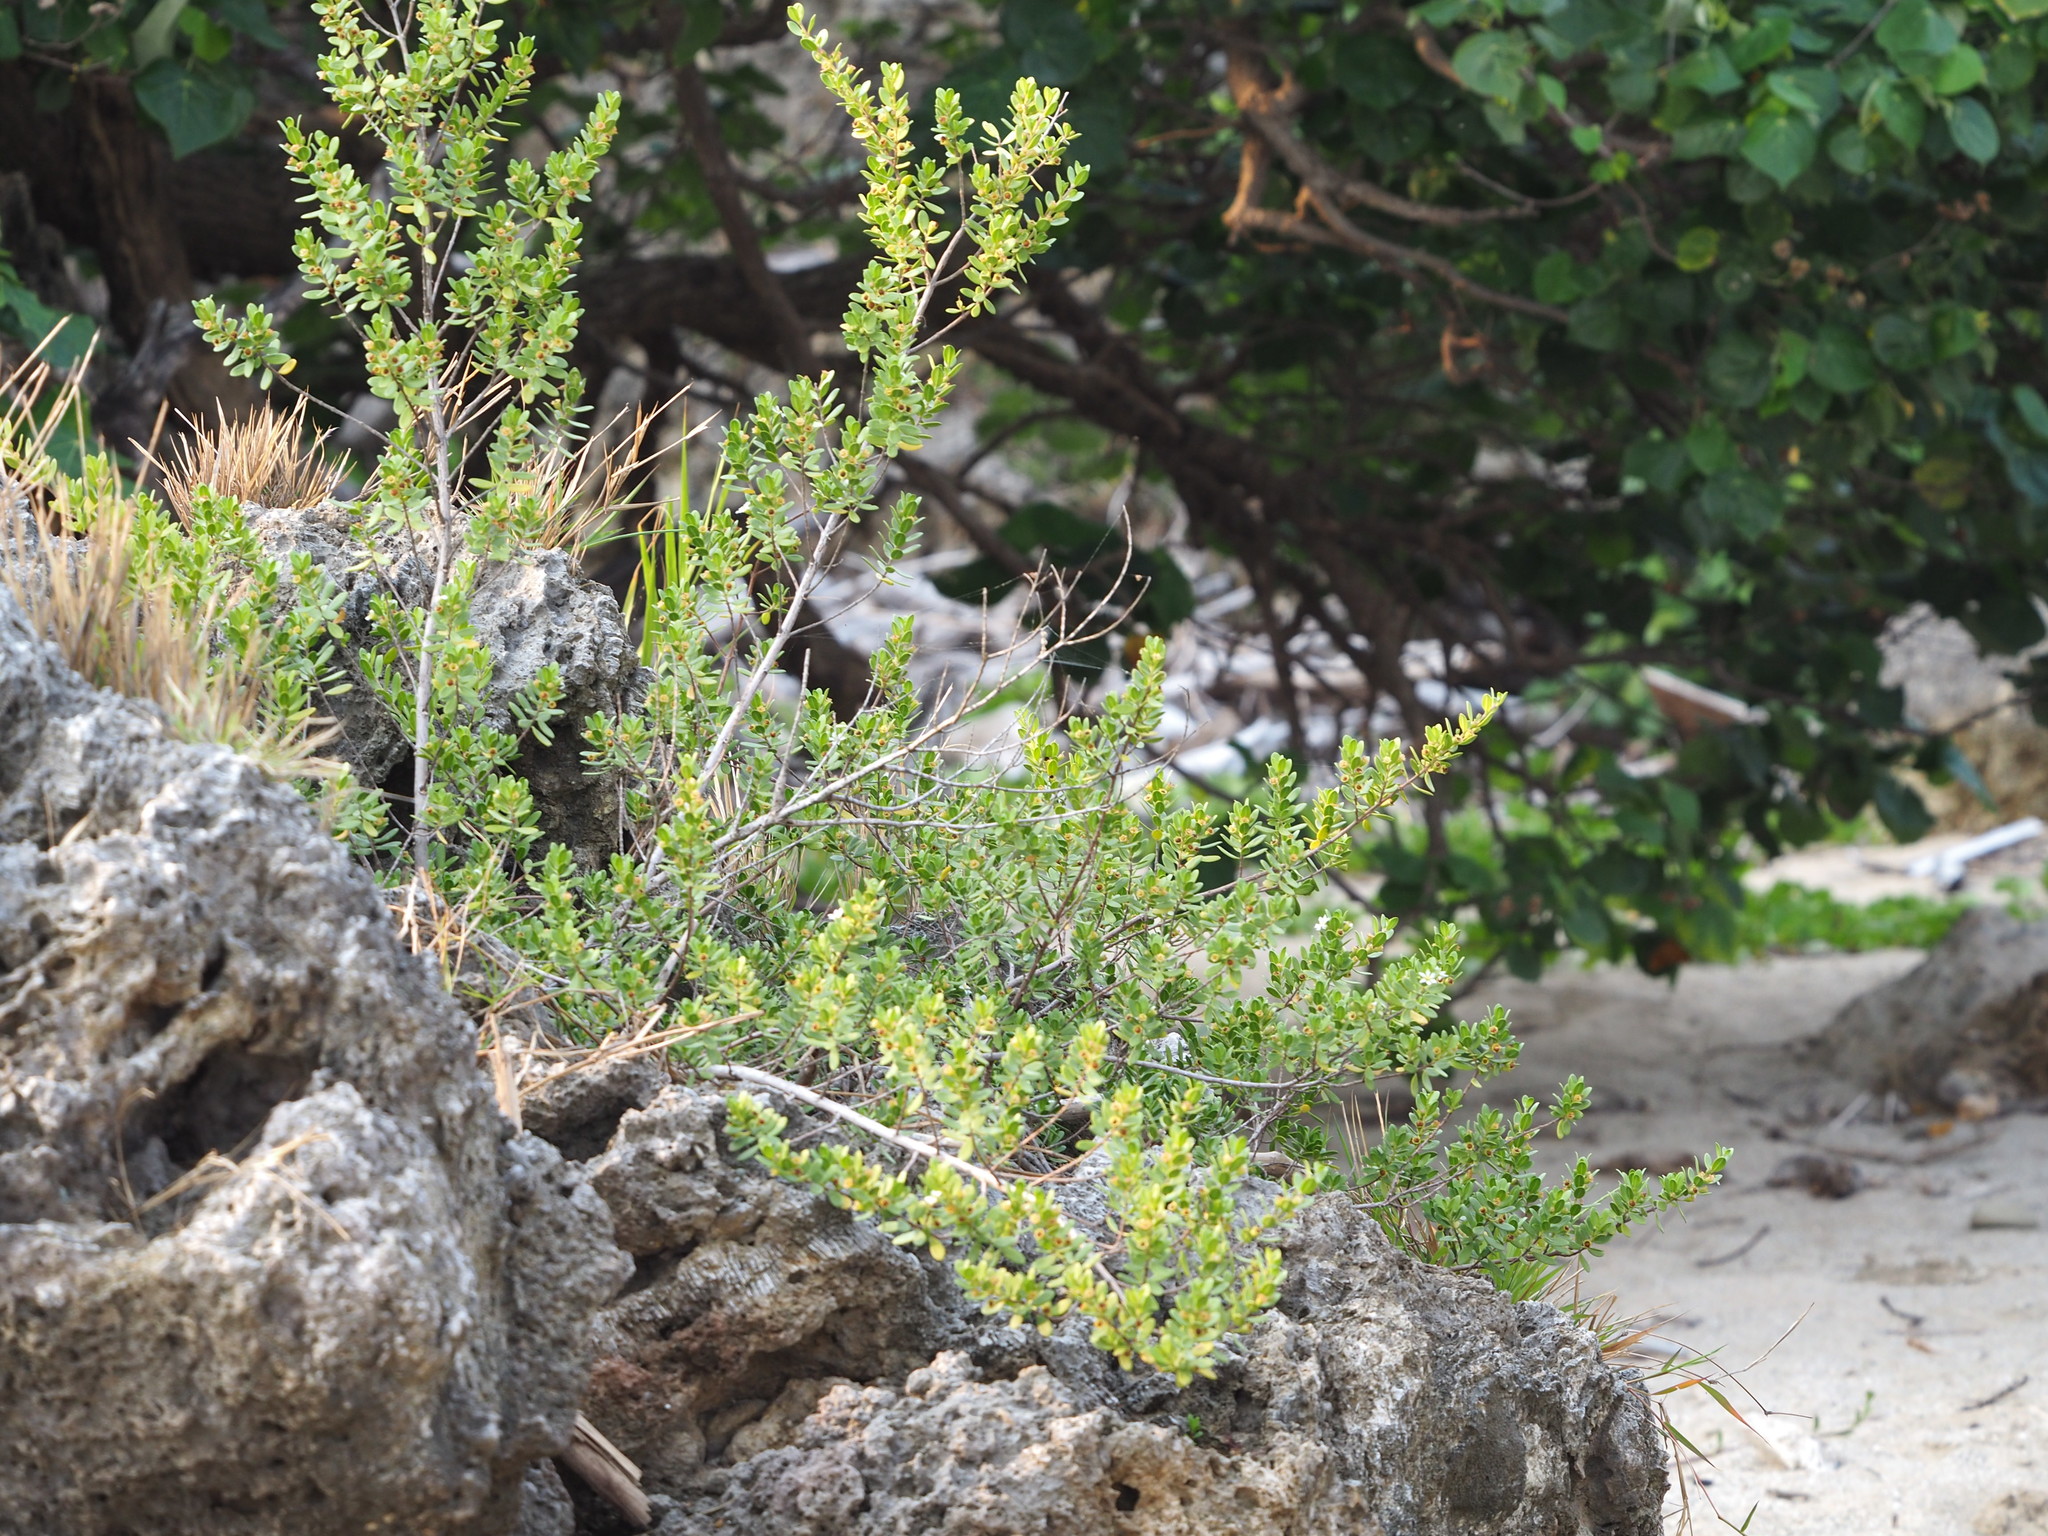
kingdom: Plantae
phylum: Tracheophyta
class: Magnoliopsida
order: Myrtales
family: Lythraceae
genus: Pemphis
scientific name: Pemphis acidula
